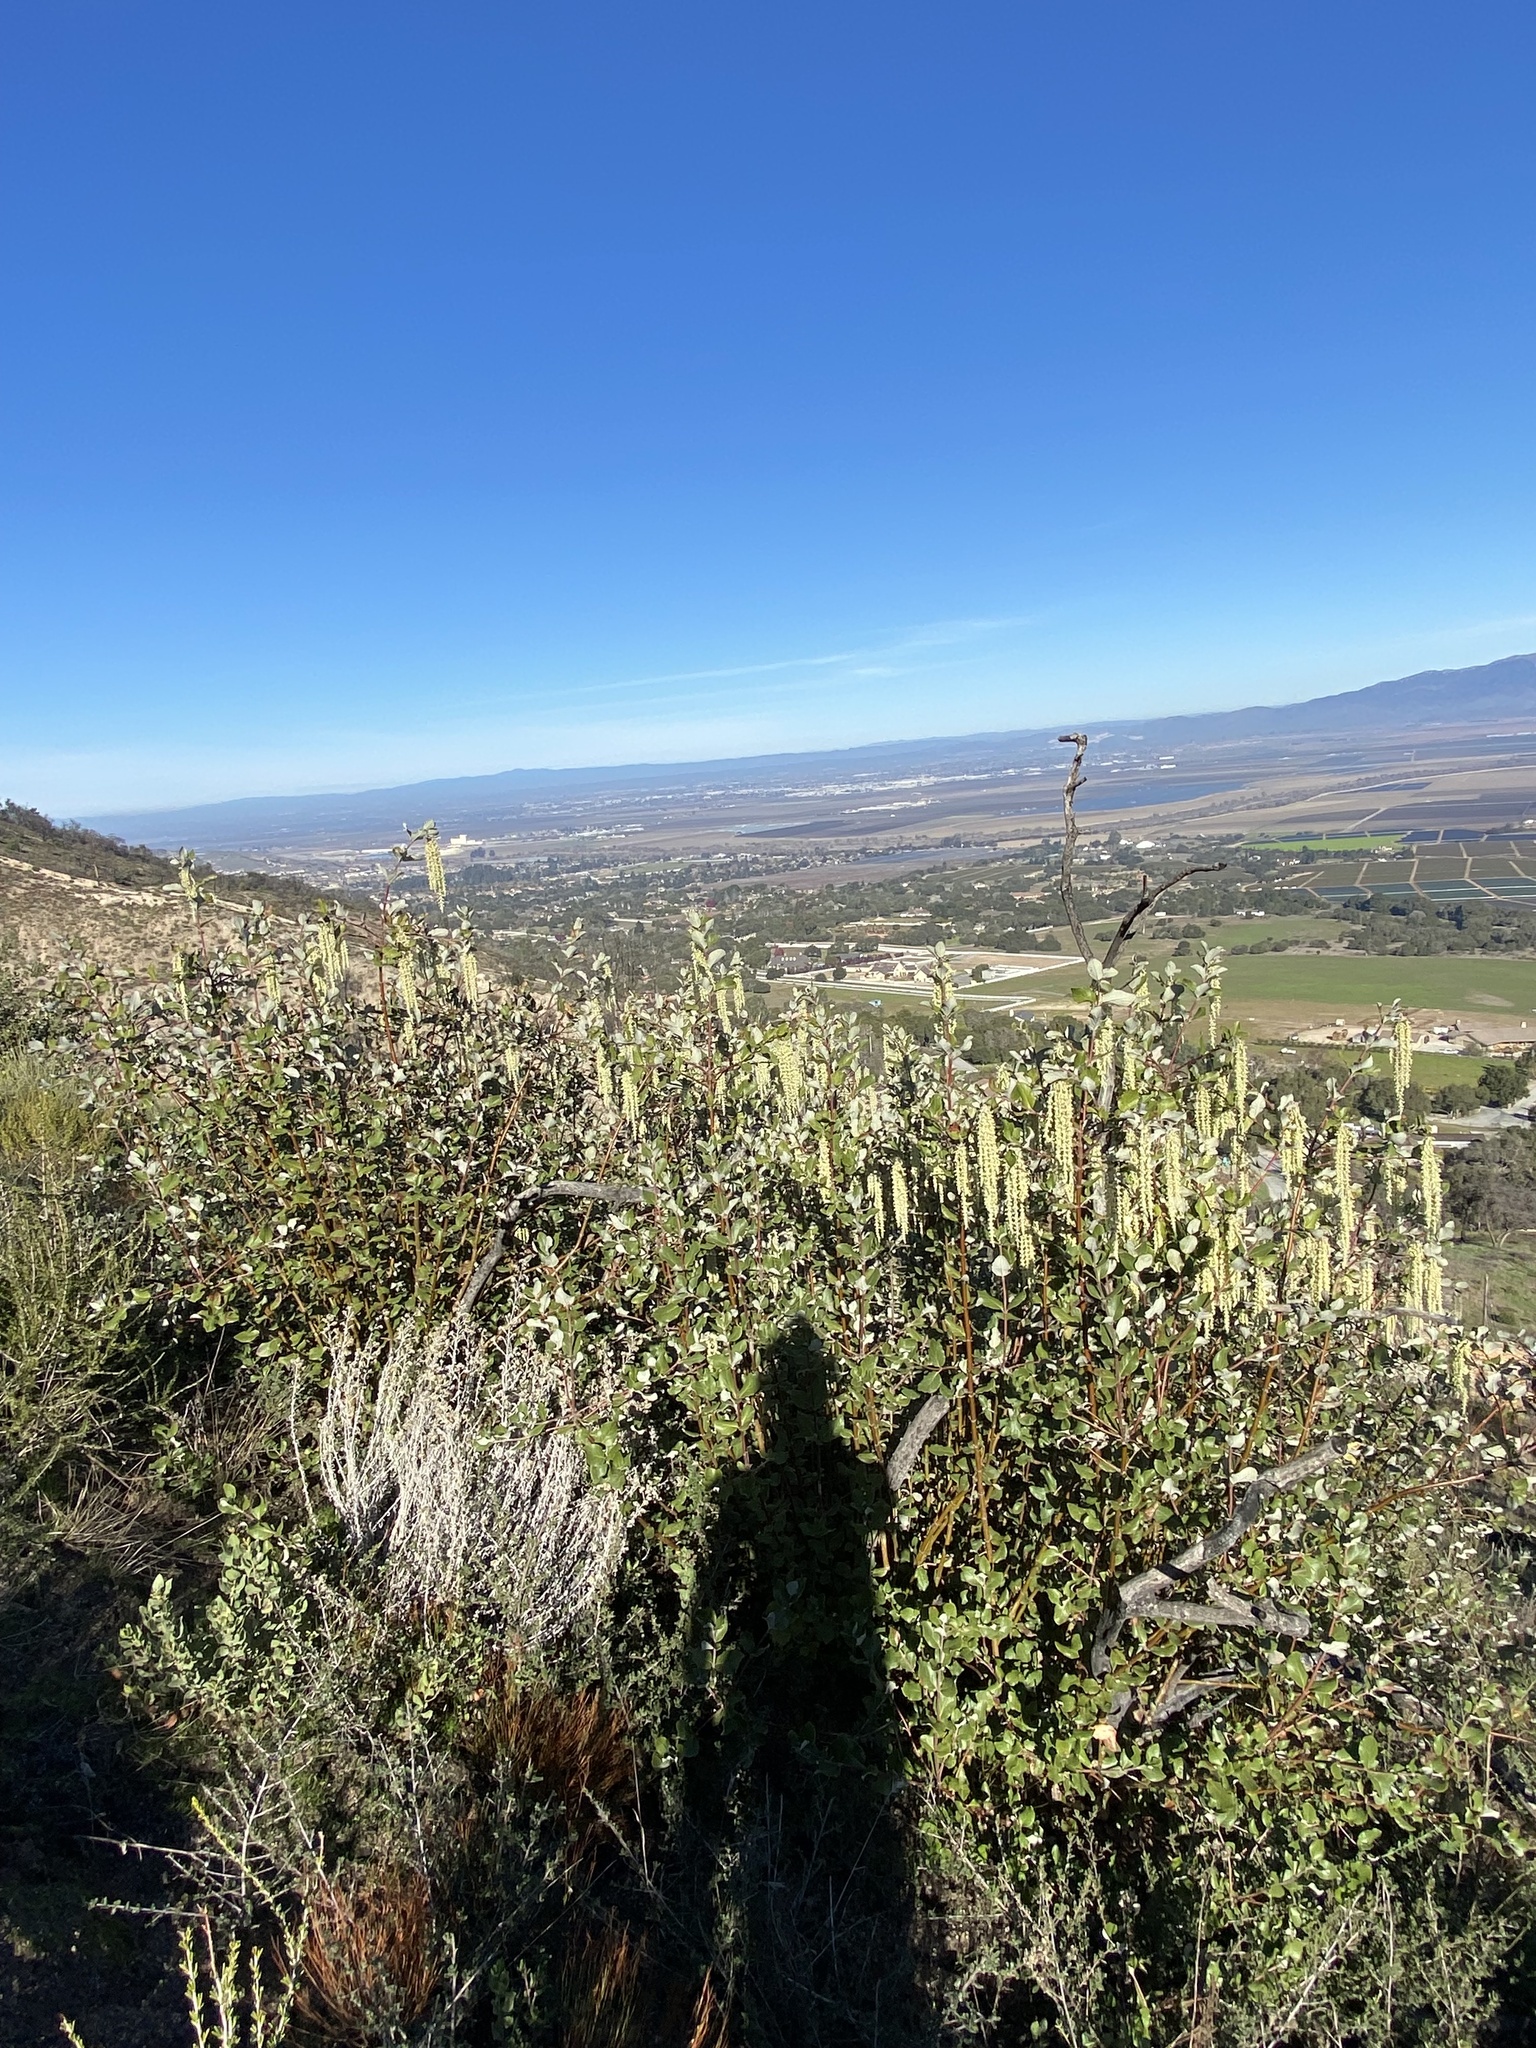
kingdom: Plantae
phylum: Tracheophyta
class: Magnoliopsida
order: Garryales
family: Garryaceae
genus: Garrya
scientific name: Garrya elliptica
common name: Silk-tassel
